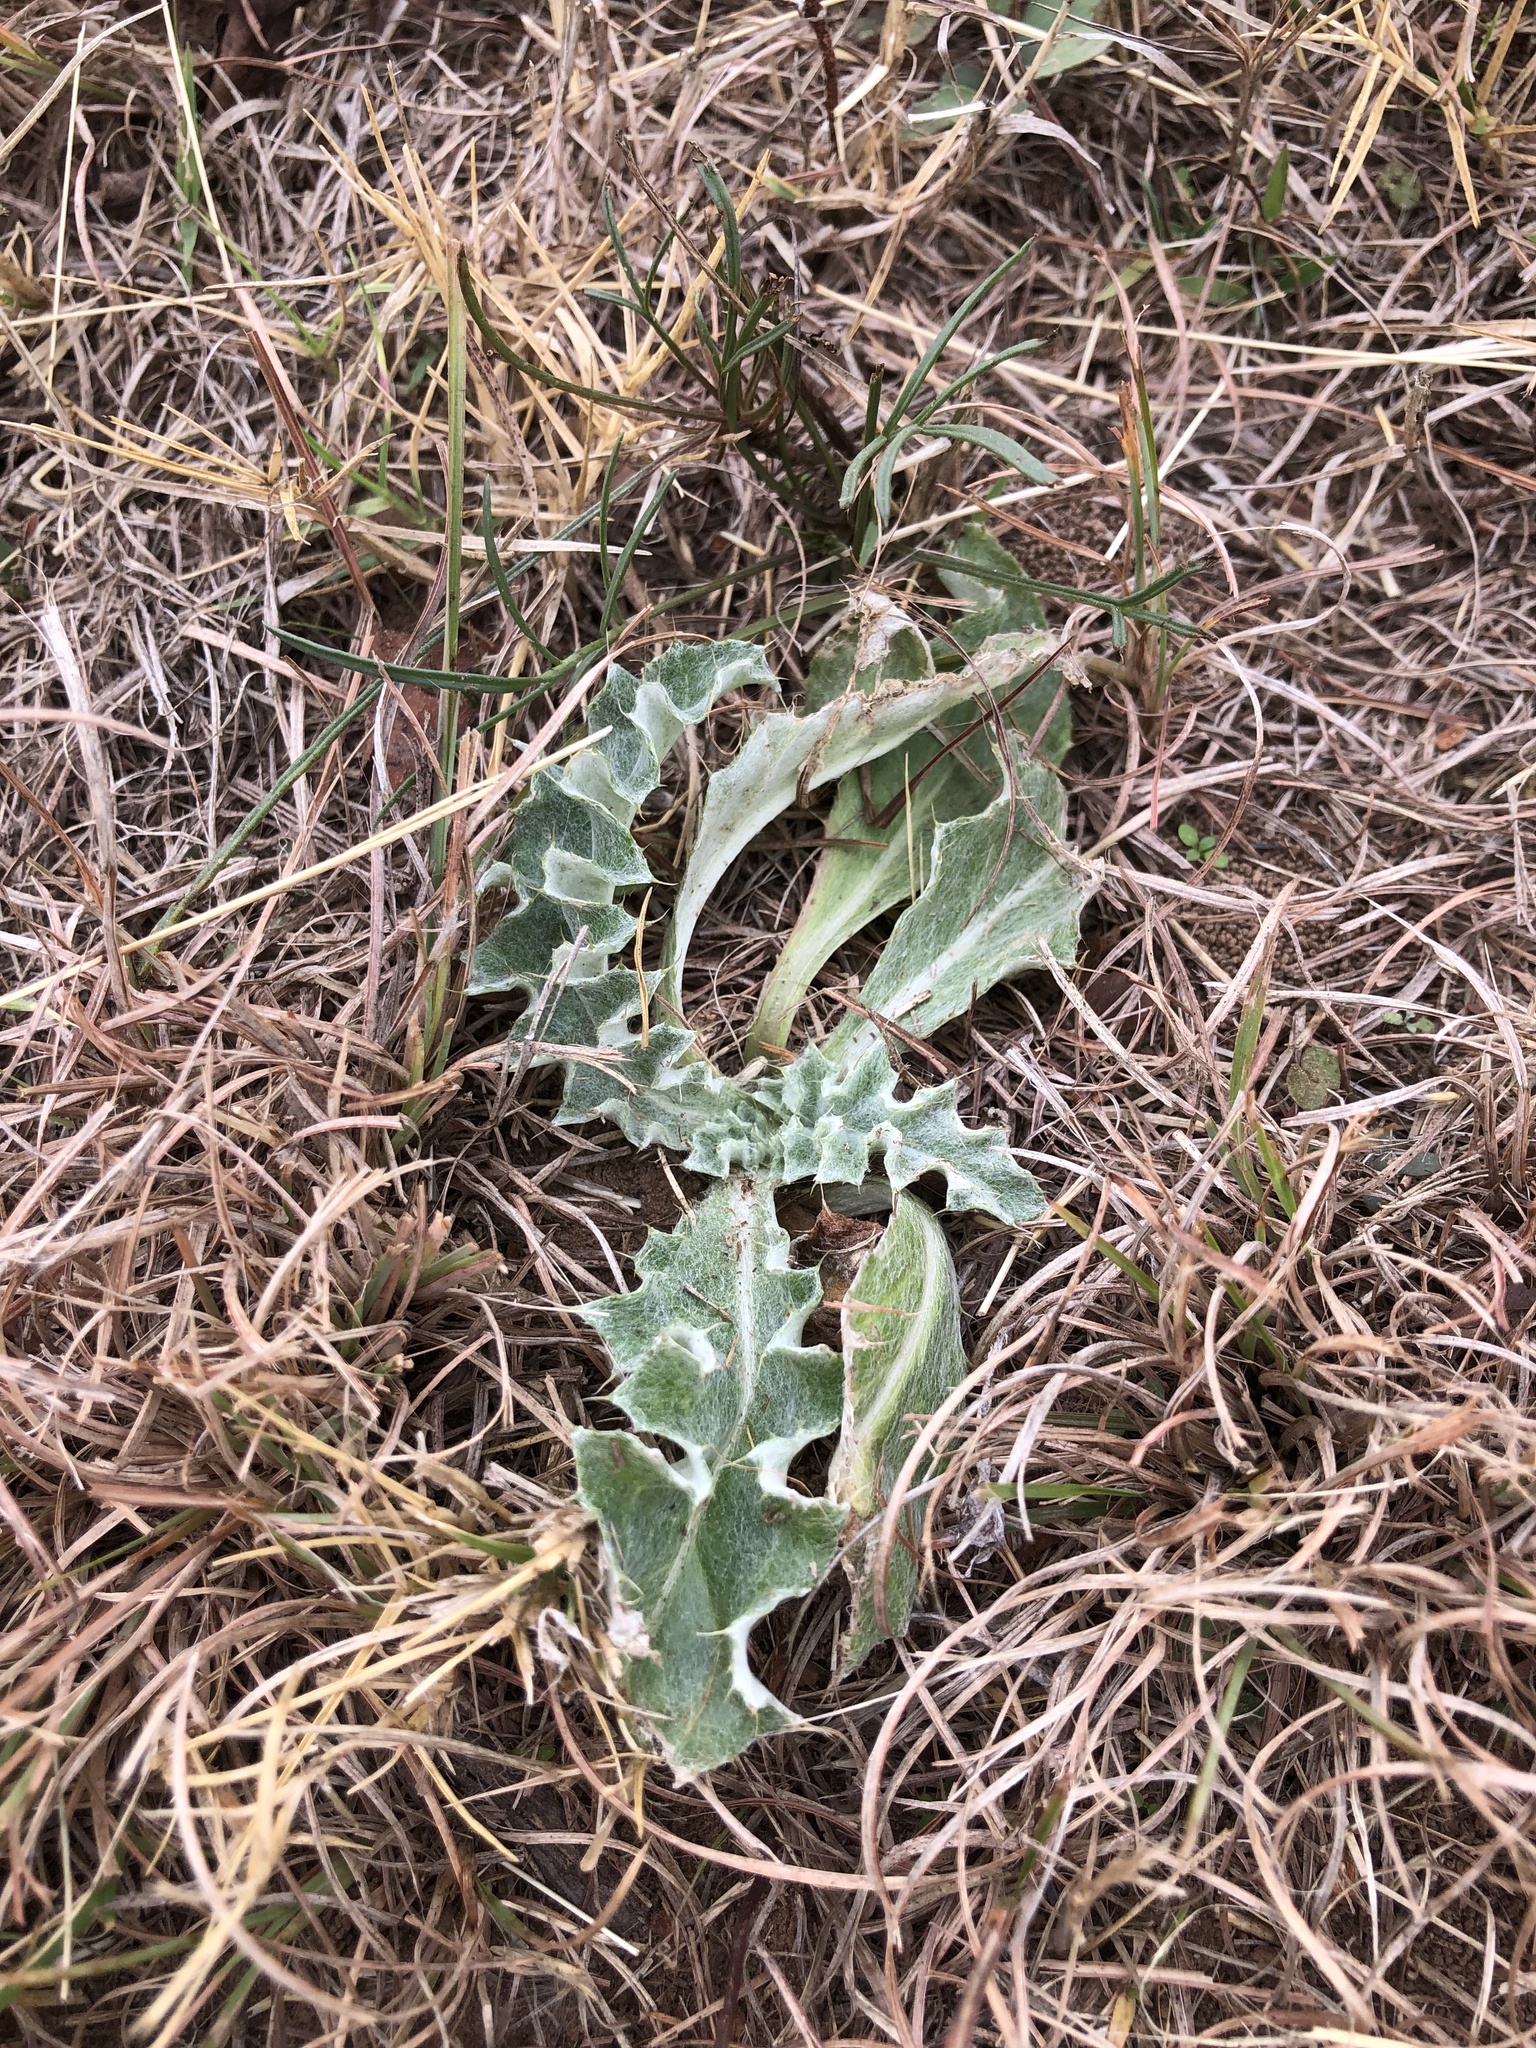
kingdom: Plantae
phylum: Tracheophyta
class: Magnoliopsida
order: Asterales
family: Asteraceae
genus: Cirsium
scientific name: Cirsium undulatum
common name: Pasture thistle
